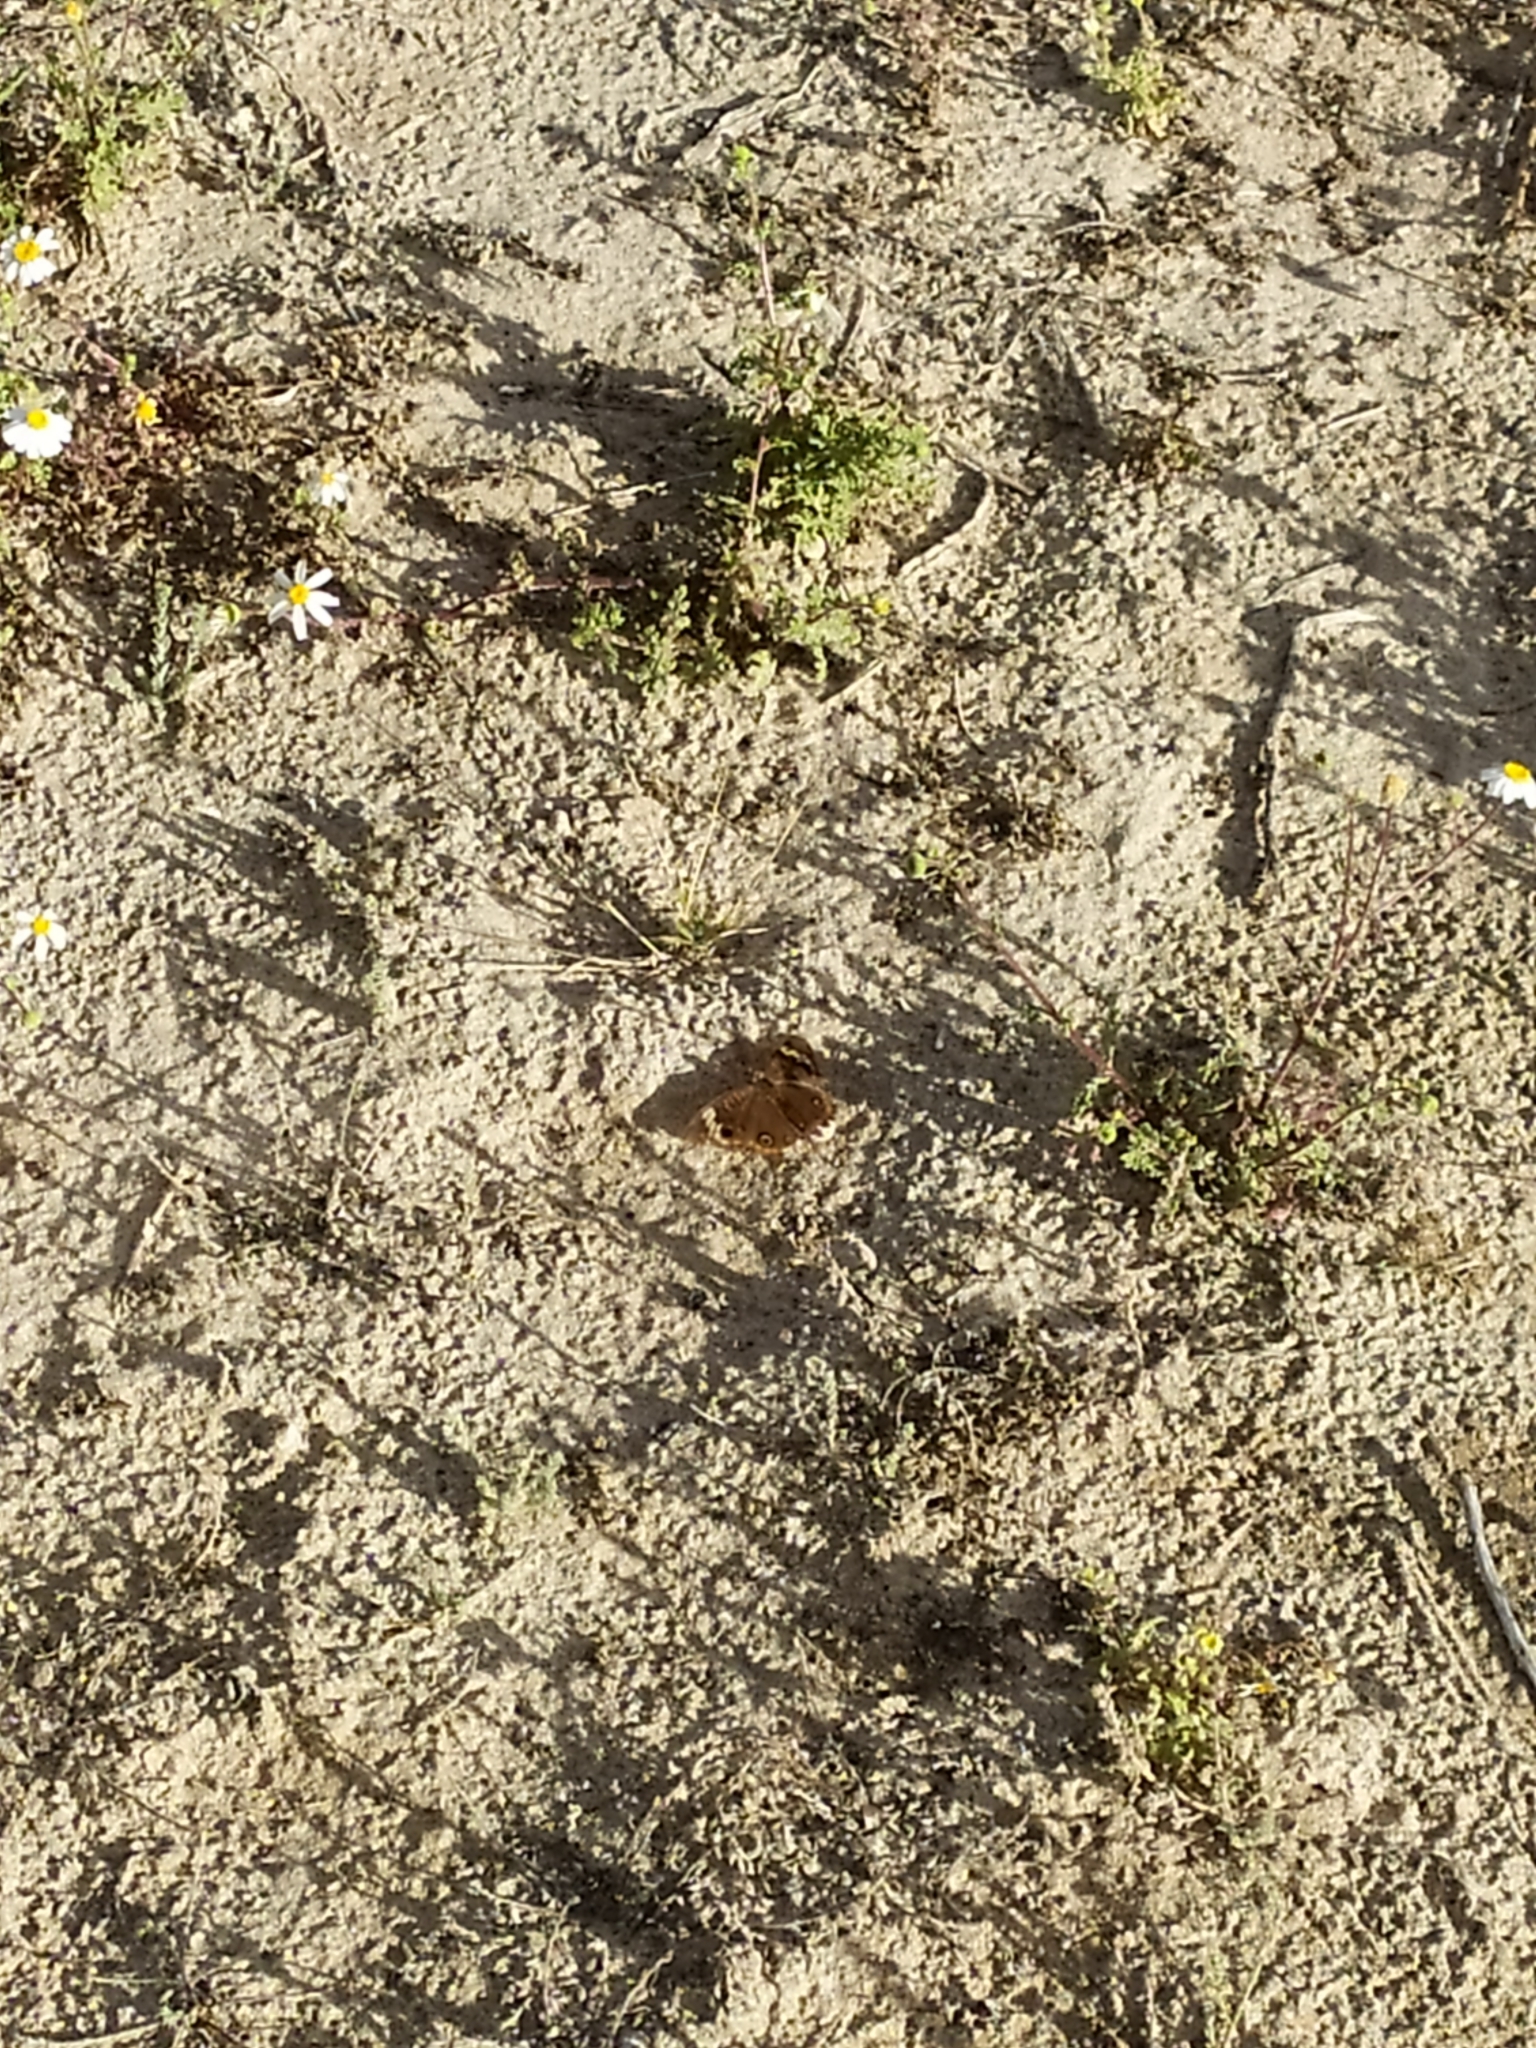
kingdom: Animalia
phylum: Arthropoda
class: Insecta
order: Lepidoptera
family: Nymphalidae
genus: Junonia
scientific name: Junonia pacoma
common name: Pacific mangrove buckeye
